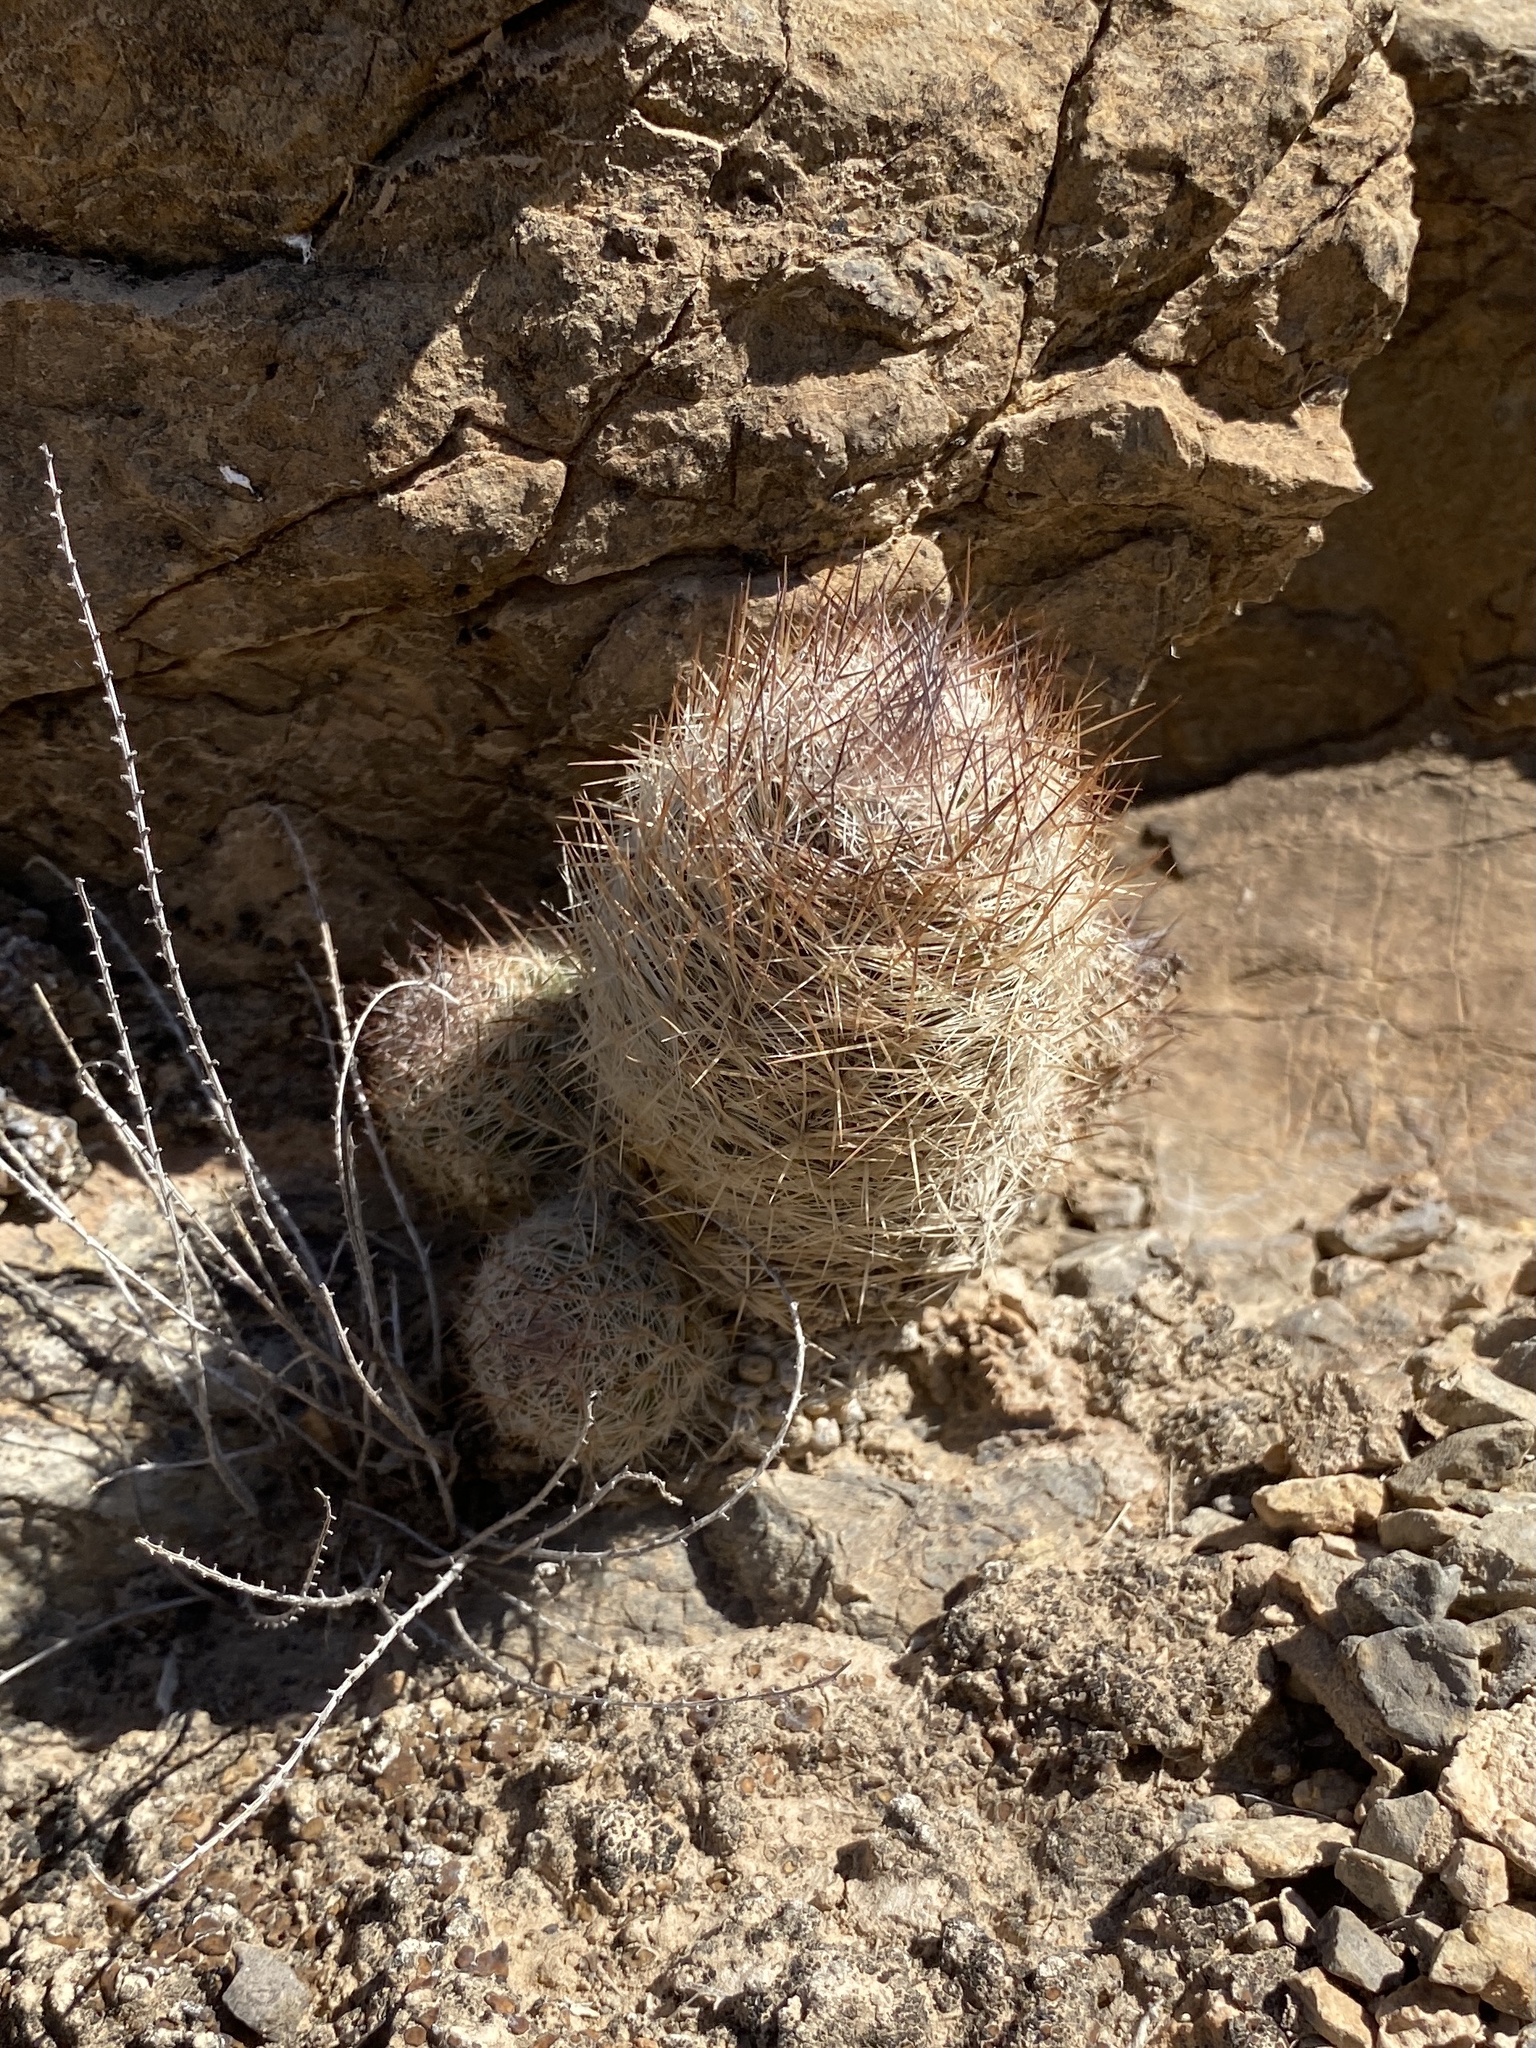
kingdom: Plantae
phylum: Tracheophyta
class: Magnoliopsida
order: Caryophyllales
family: Cactaceae
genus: Pelecyphora
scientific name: Pelecyphora tuberculosa
